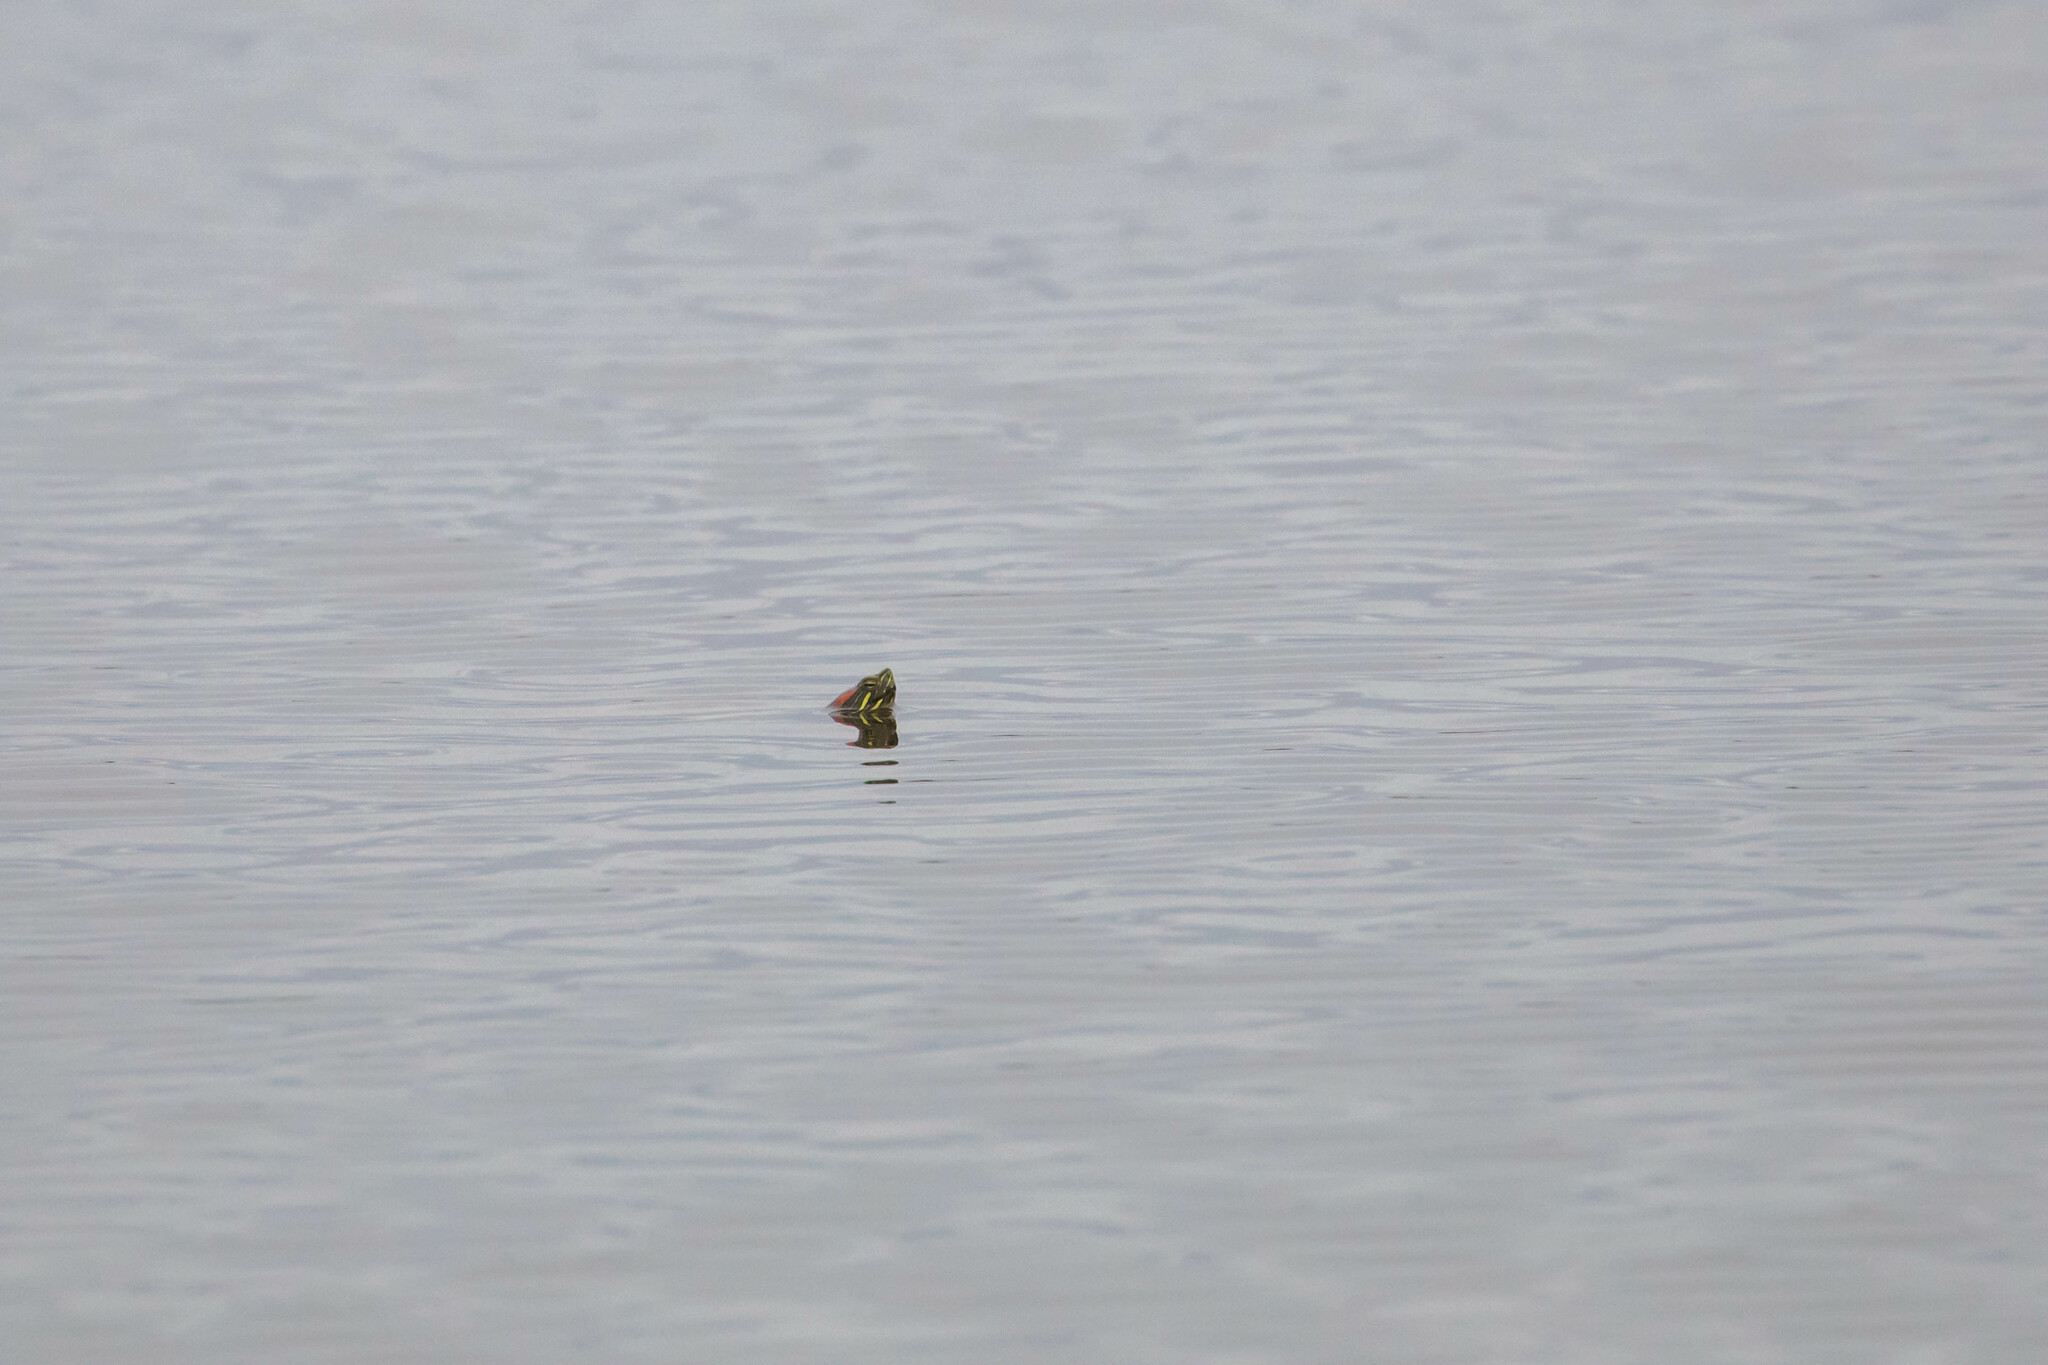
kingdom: Animalia
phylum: Chordata
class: Testudines
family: Emydidae
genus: Trachemys
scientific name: Trachemys scripta
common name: Slider
